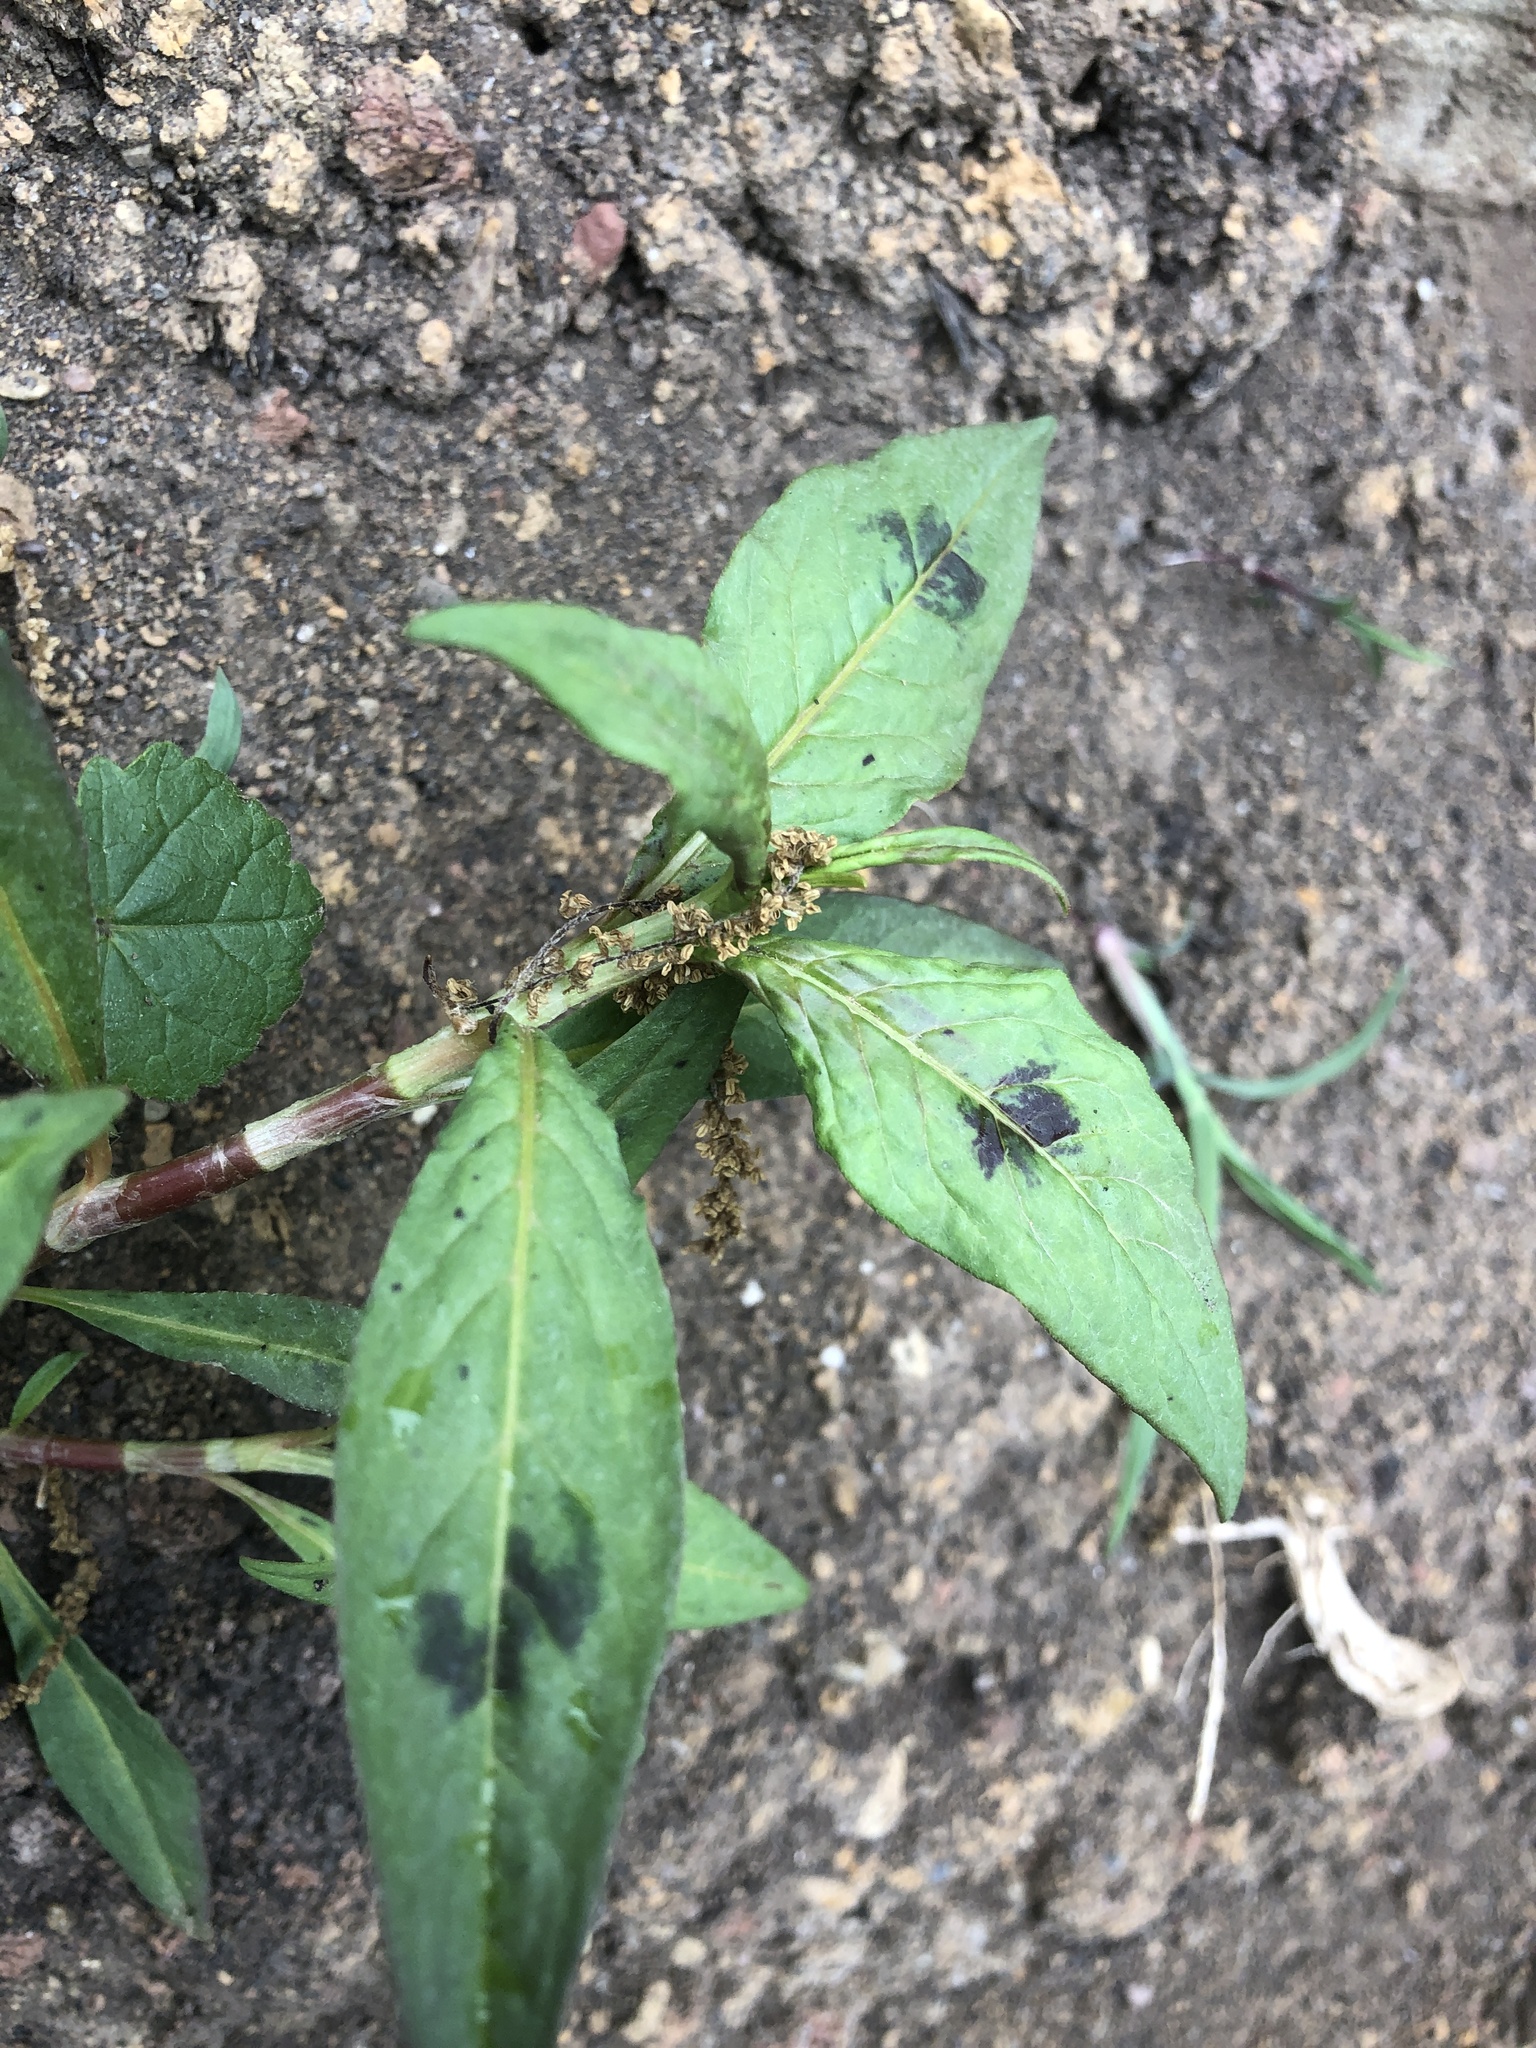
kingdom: Plantae
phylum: Tracheophyta
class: Magnoliopsida
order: Caryophyllales
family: Polygonaceae
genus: Persicaria
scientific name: Persicaria maculosa
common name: Redshank
